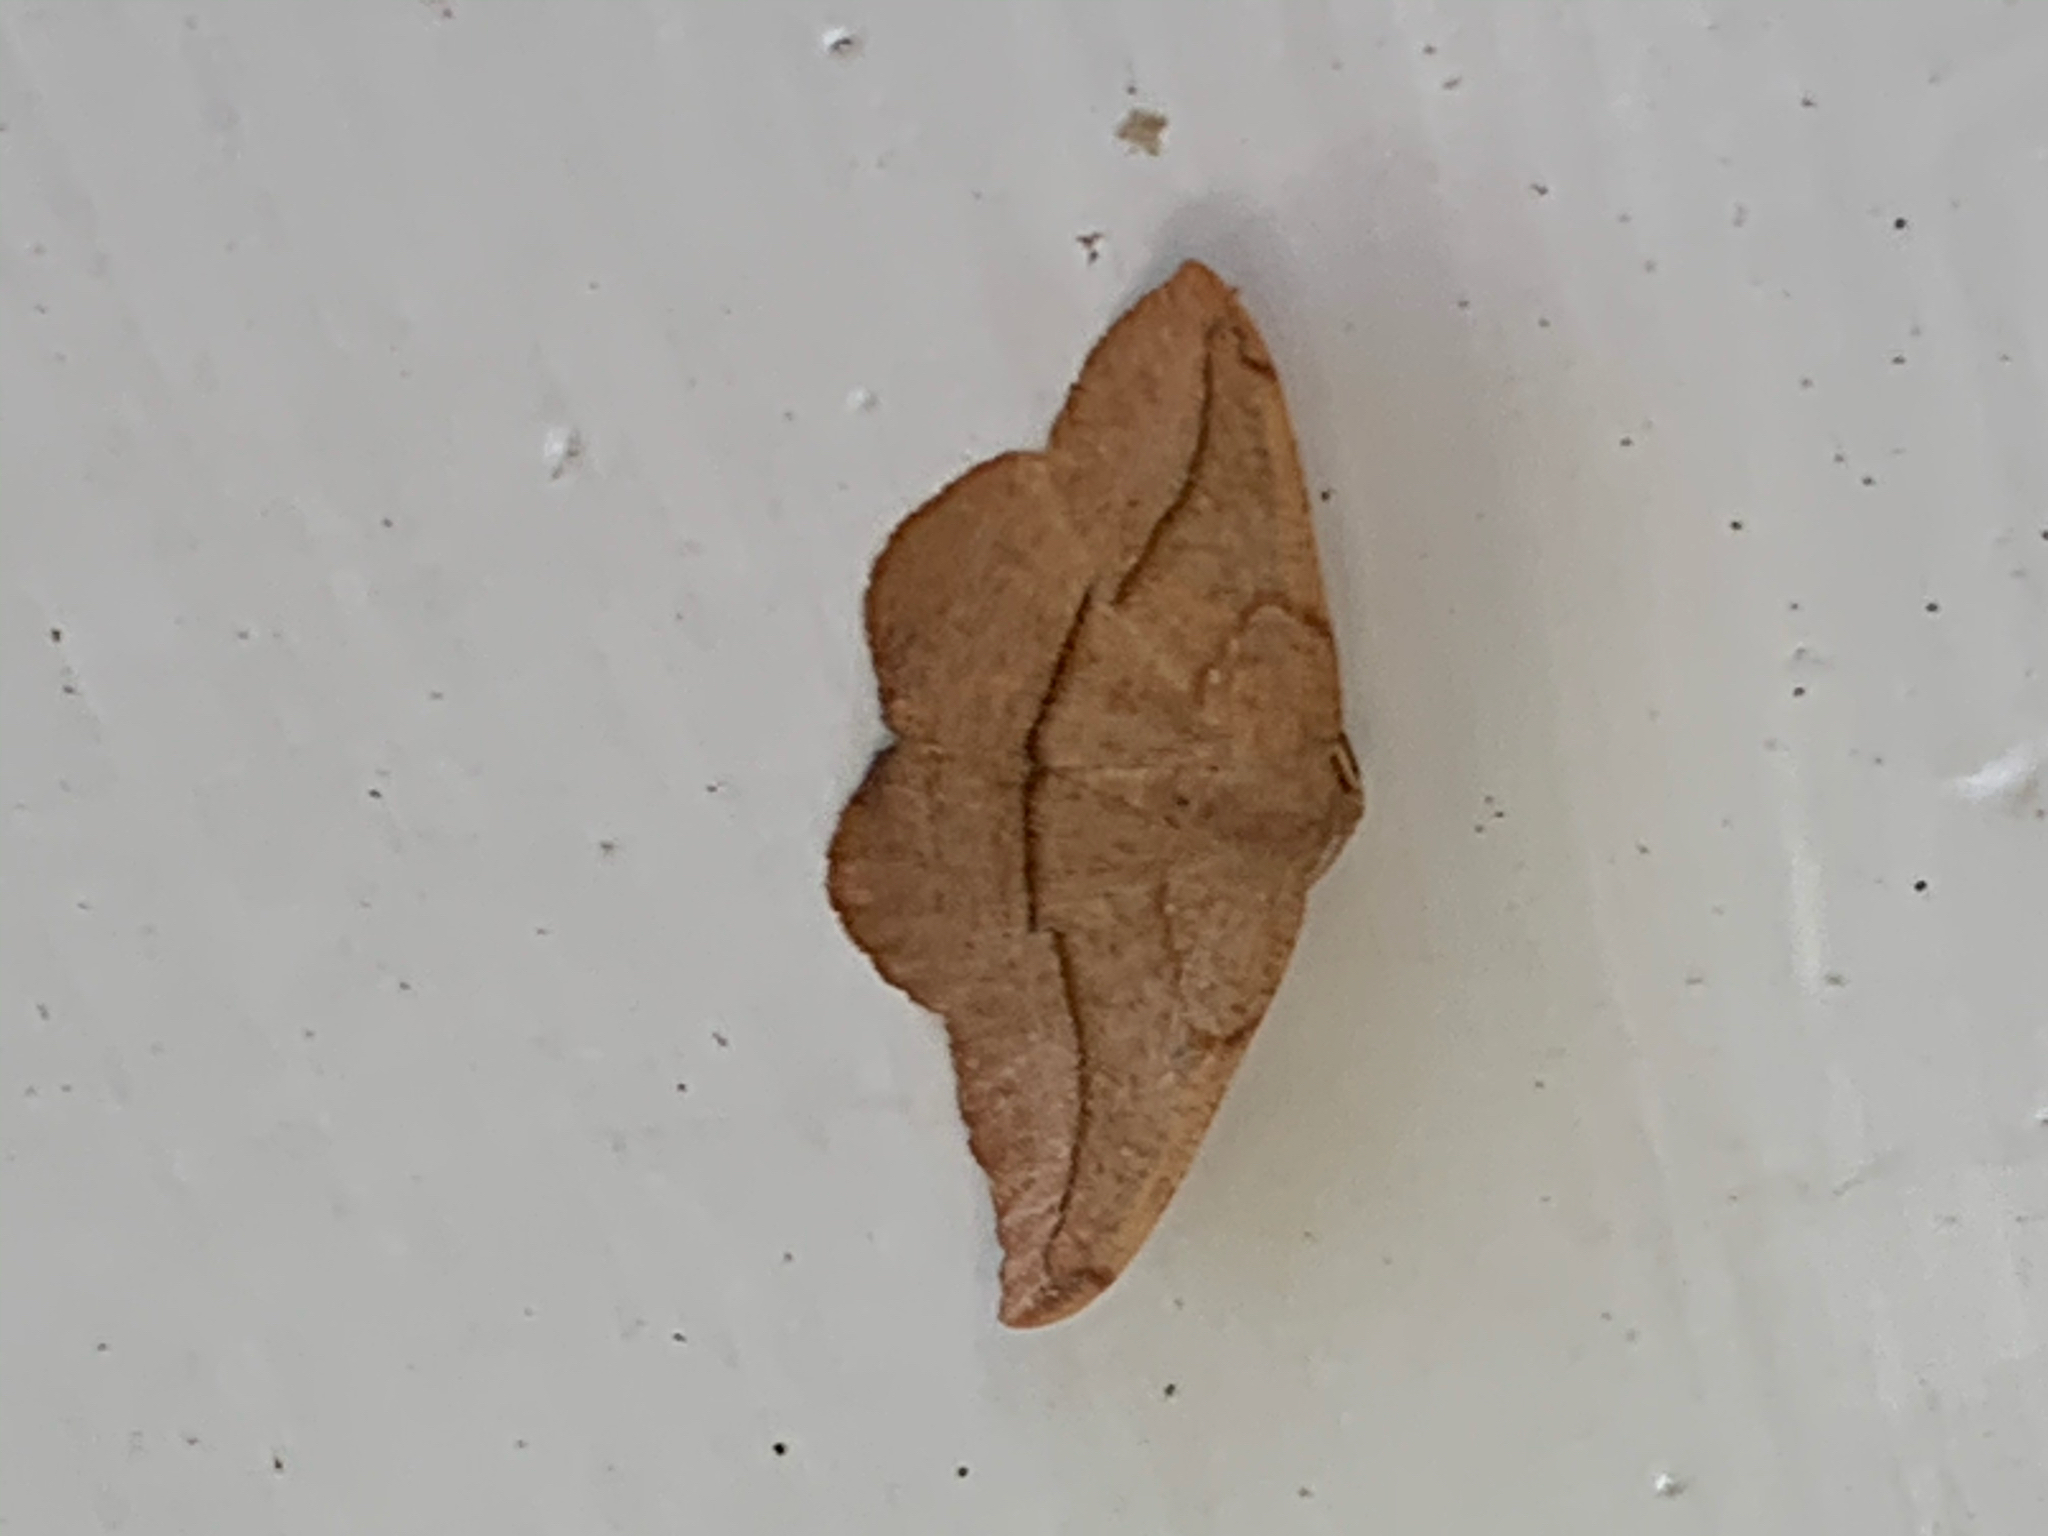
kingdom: Animalia
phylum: Arthropoda
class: Insecta
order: Lepidoptera
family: Geometridae
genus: Patalene
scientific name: Patalene olyzonaria
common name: Juniper geometer moth
